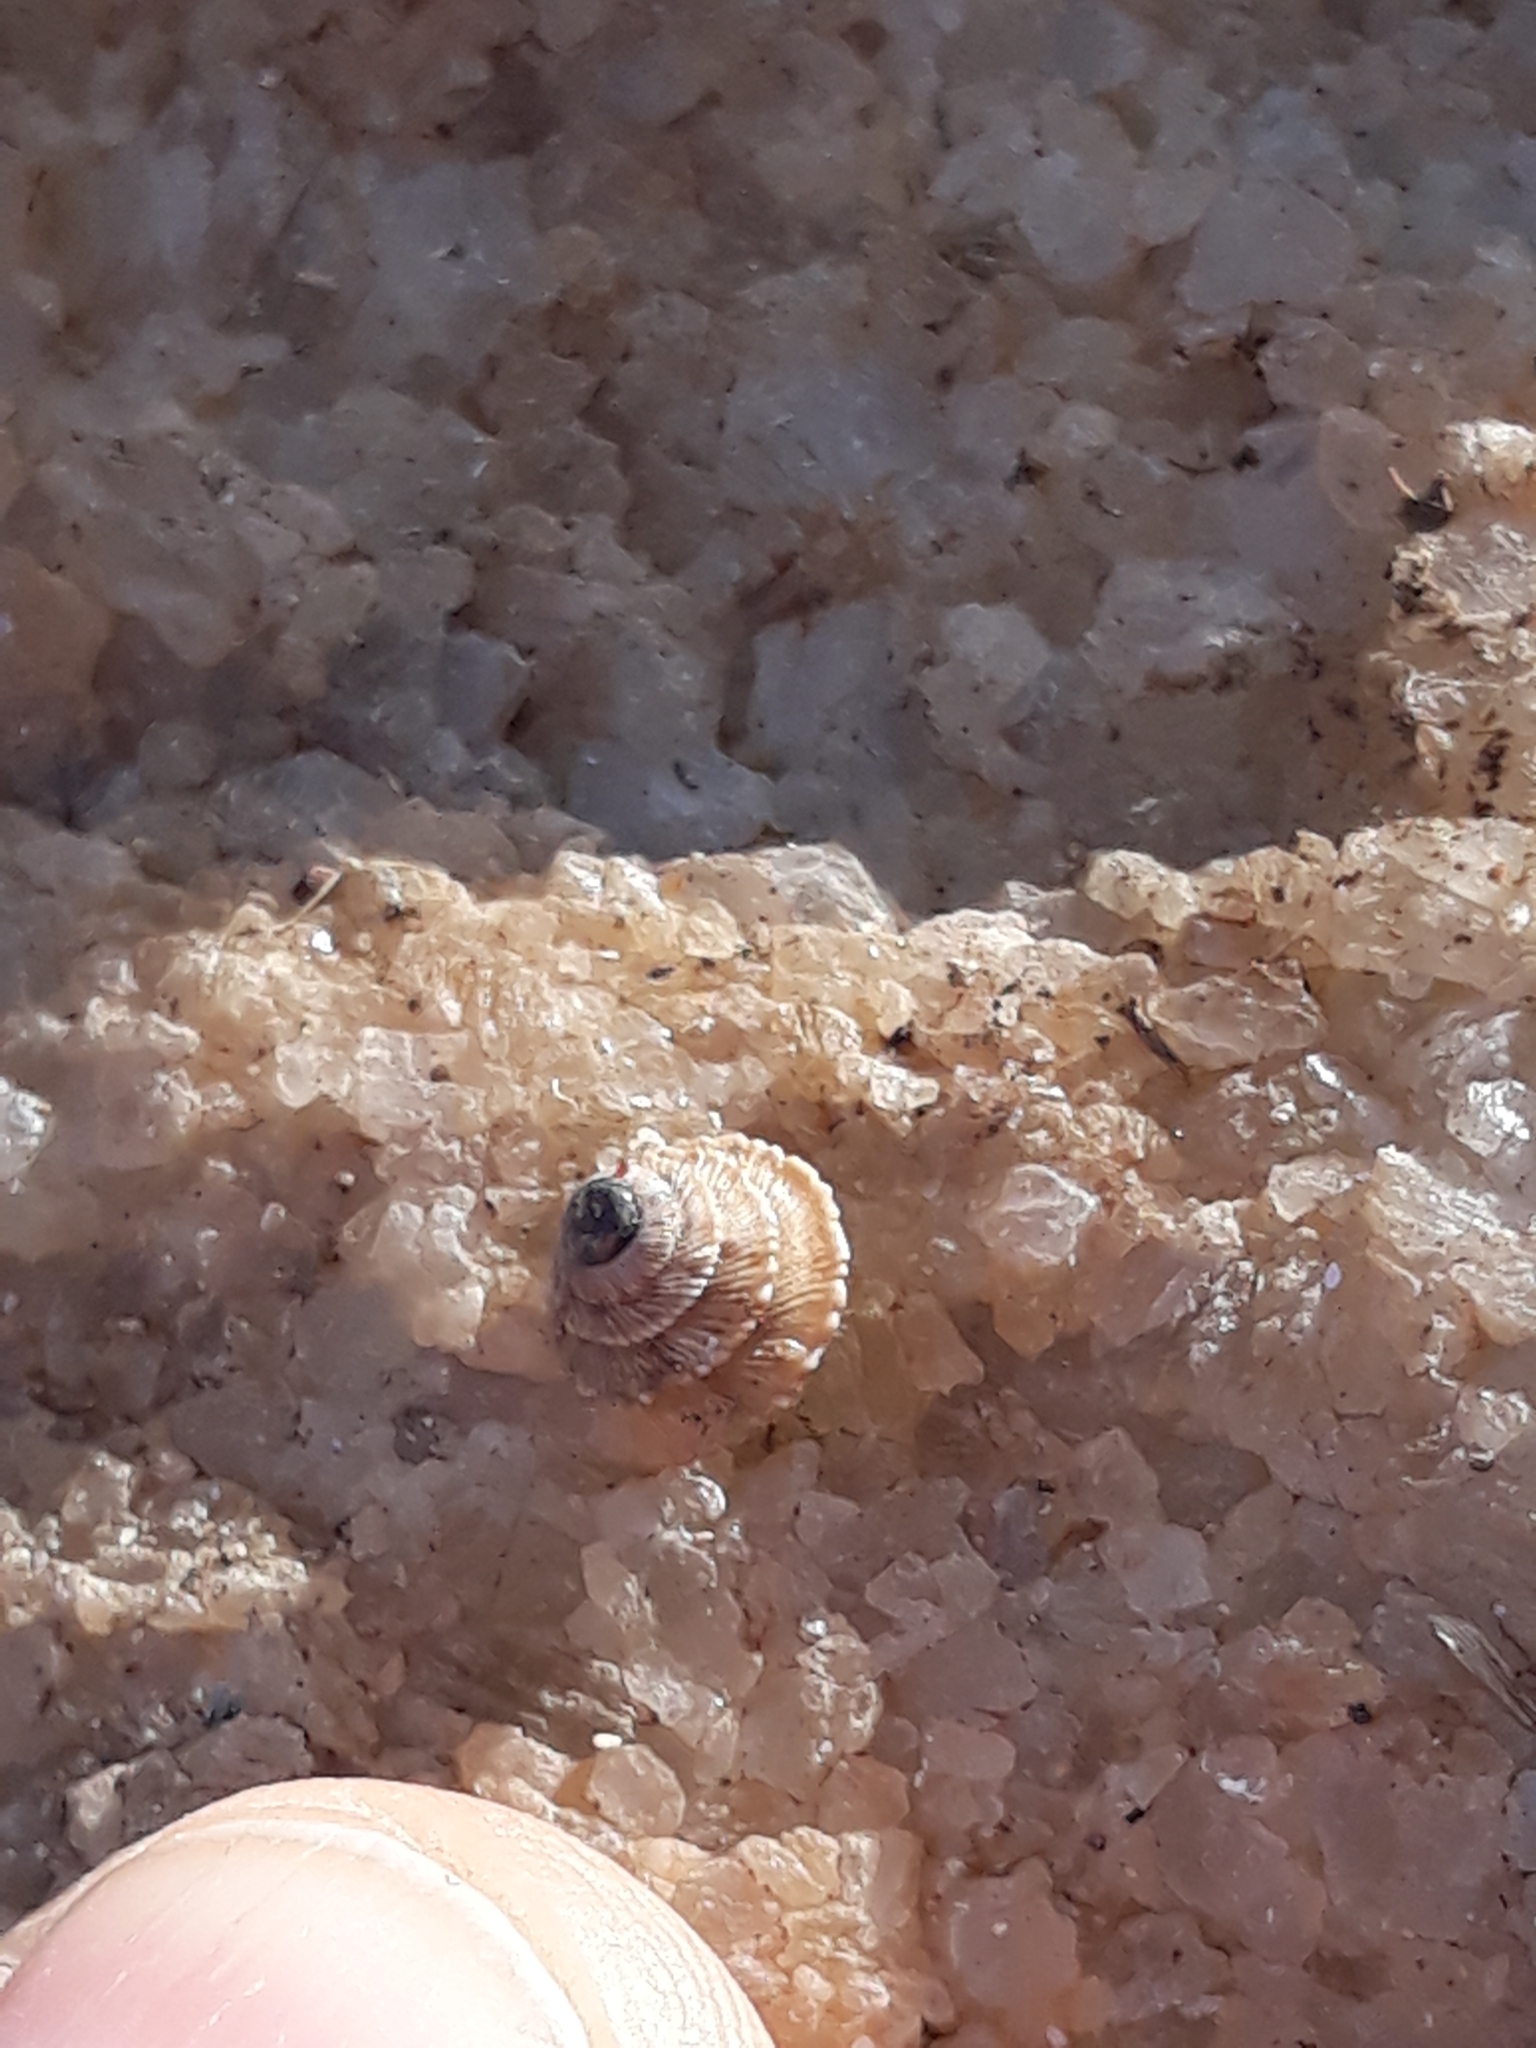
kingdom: Animalia
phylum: Mollusca
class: Gastropoda
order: Stylommatophora
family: Geomitridae
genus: Trochoidea
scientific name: Trochoidea caroni
